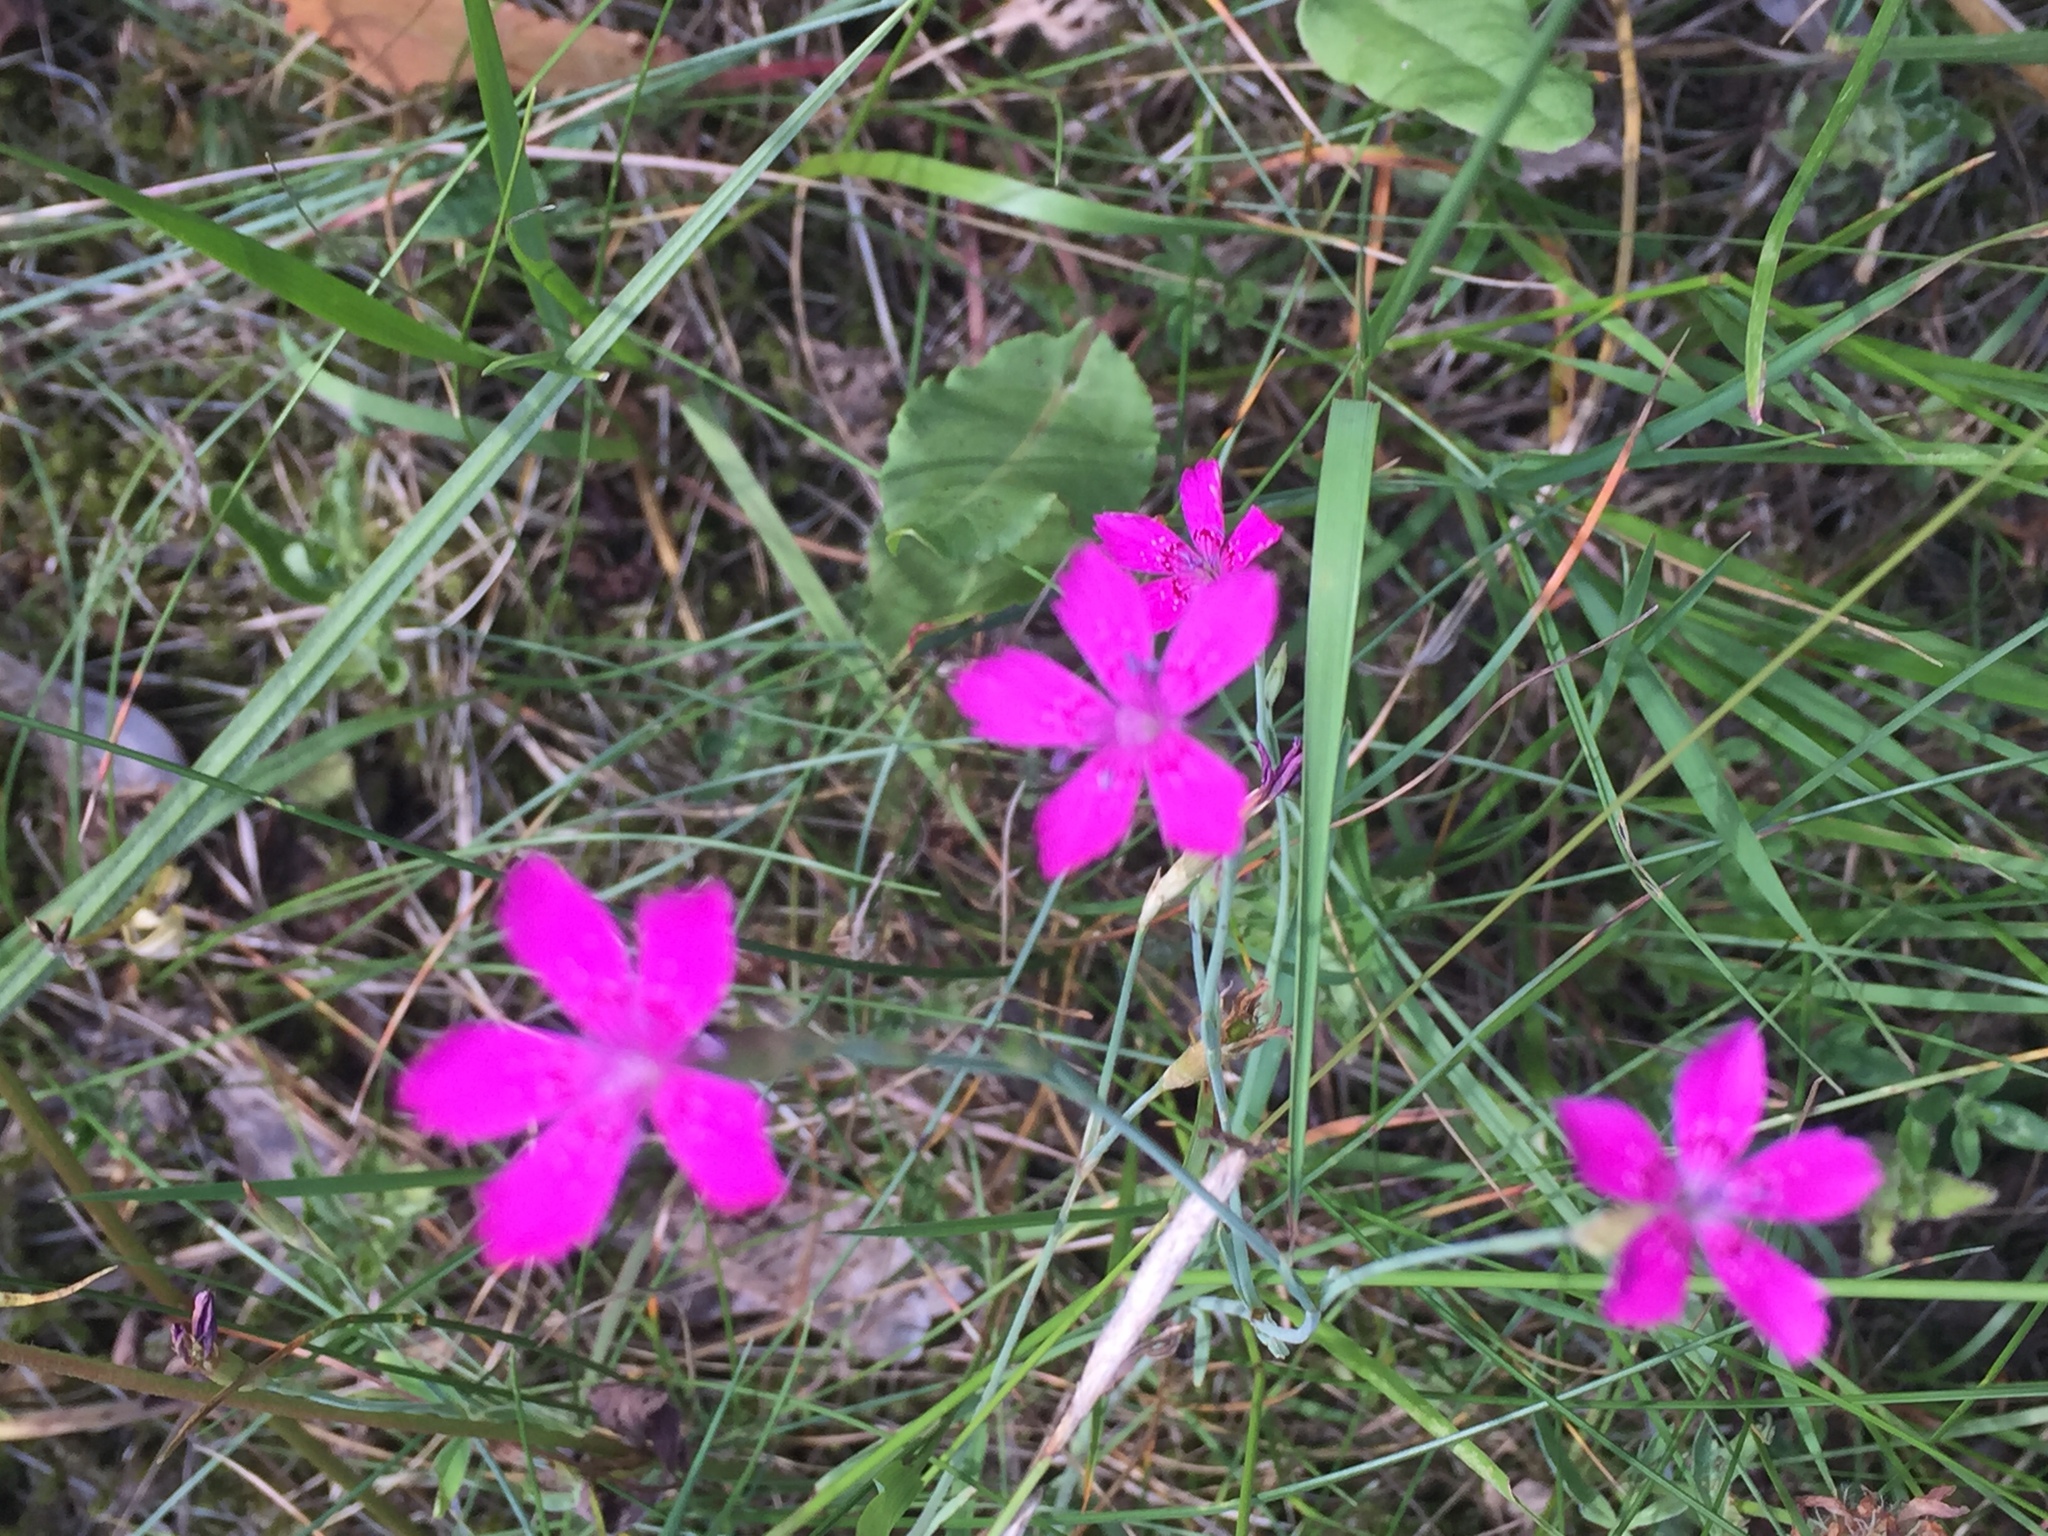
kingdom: Plantae
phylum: Tracheophyta
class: Magnoliopsida
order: Caryophyllales
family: Caryophyllaceae
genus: Dianthus
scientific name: Dianthus deltoides
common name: Maiden pink
